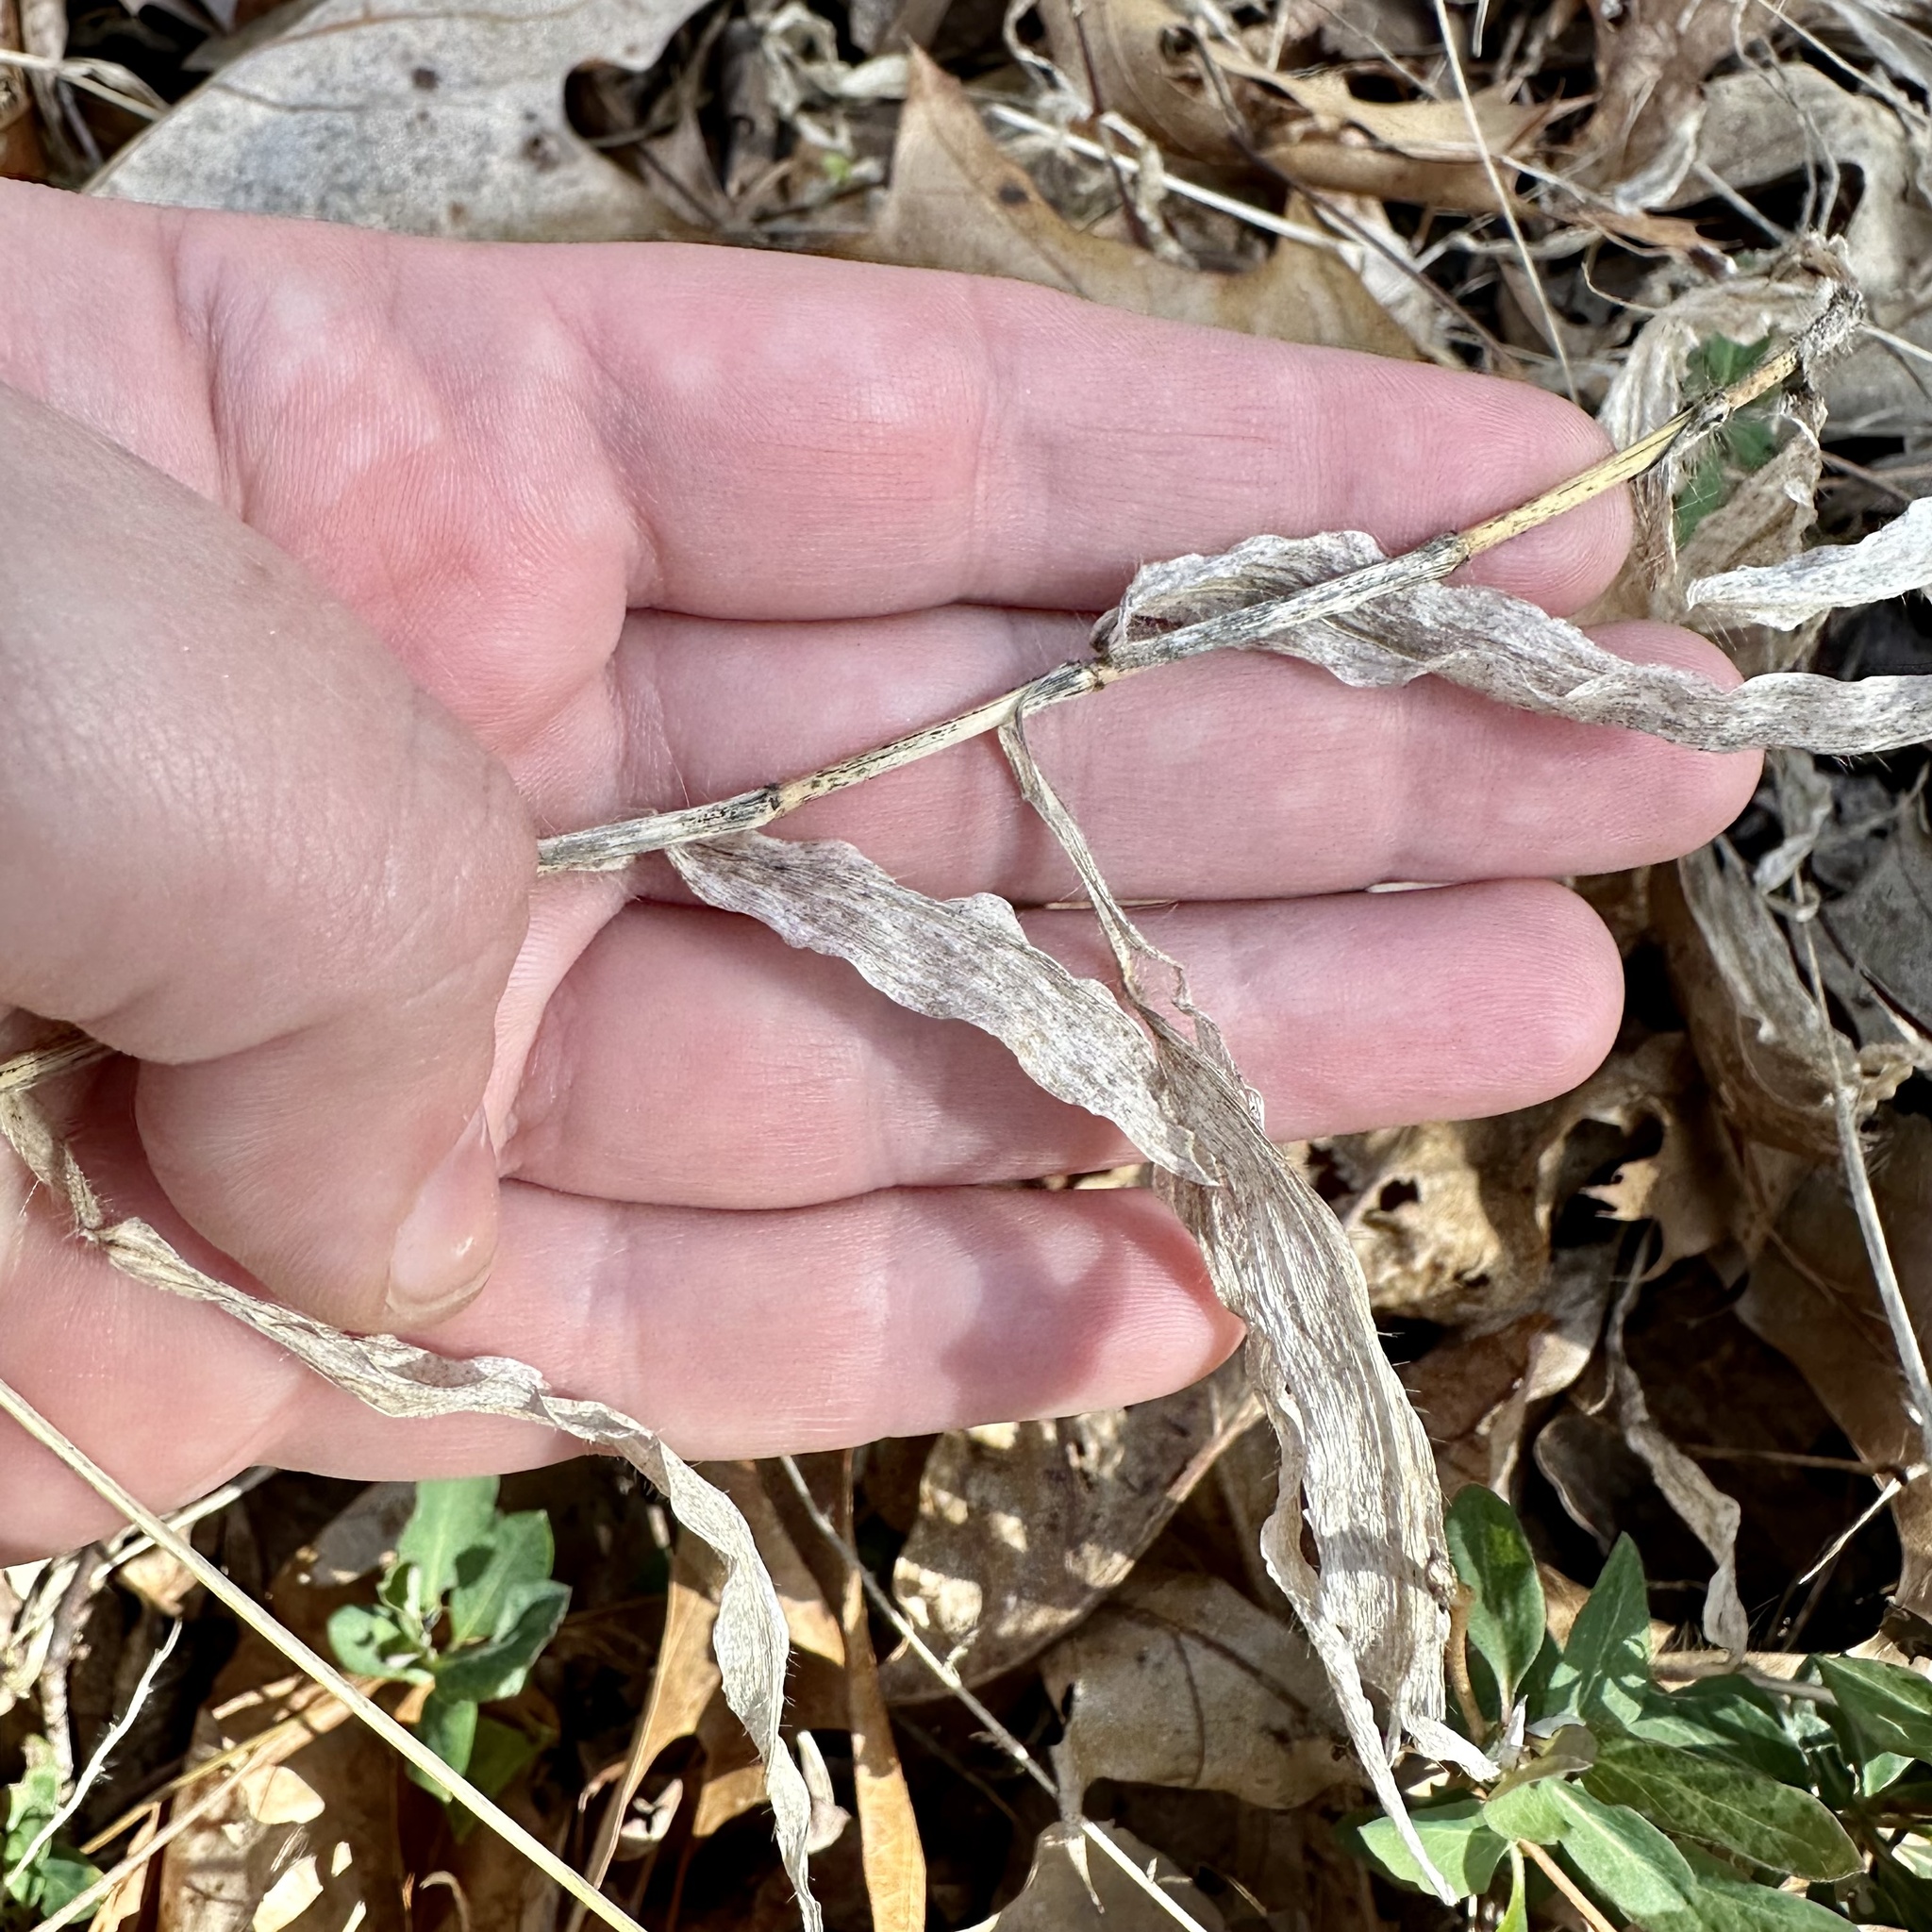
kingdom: Plantae
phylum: Tracheophyta
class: Liliopsida
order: Poales
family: Poaceae
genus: Oplismenus
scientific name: Oplismenus undulatifolius
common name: Wavyleaf basketgrass
